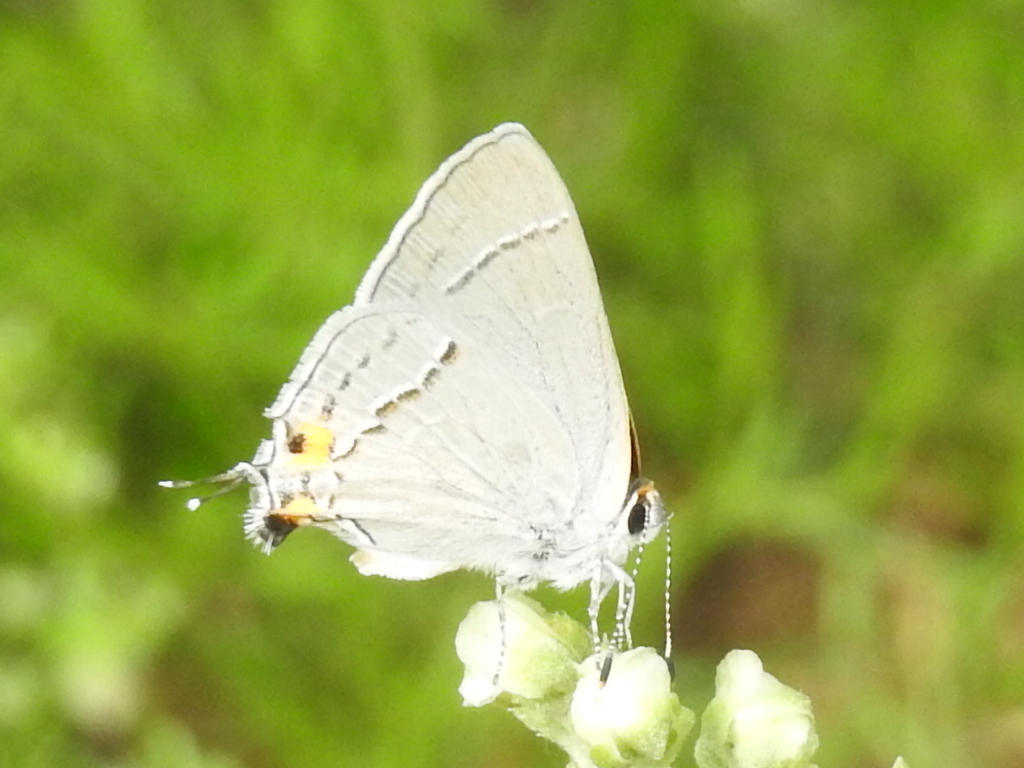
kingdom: Animalia
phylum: Arthropoda
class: Insecta
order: Lepidoptera
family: Lycaenidae
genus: Strymon
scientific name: Strymon melinus
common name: Gray hairstreak
